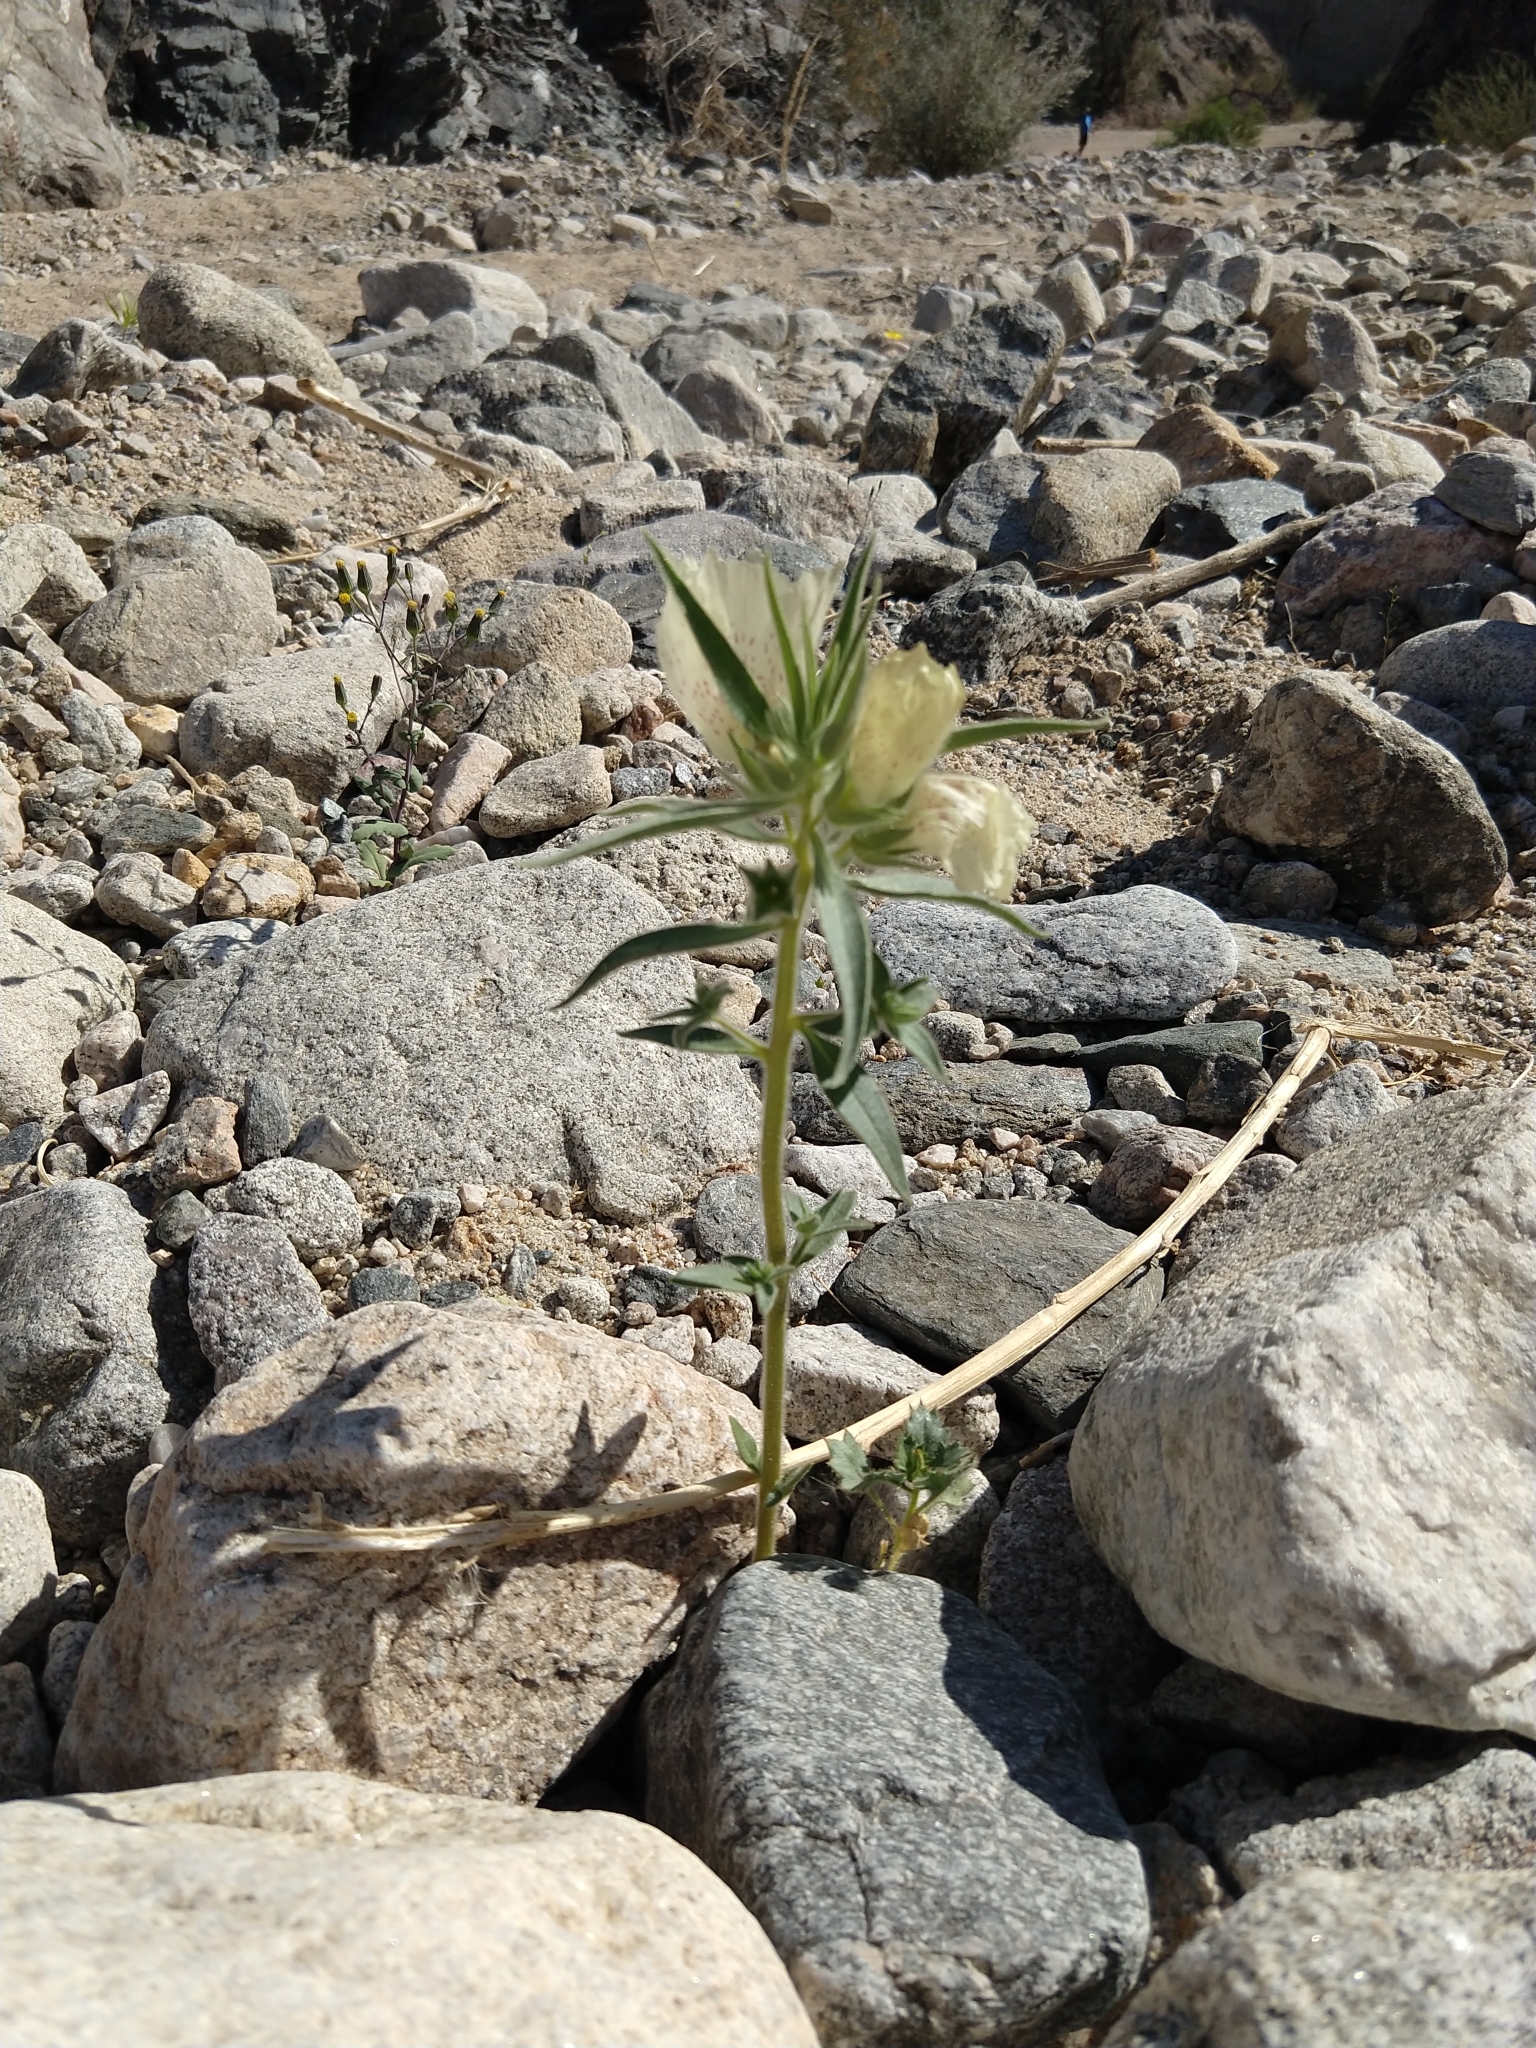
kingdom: Plantae
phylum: Tracheophyta
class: Magnoliopsida
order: Lamiales
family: Plantaginaceae
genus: Mohavea
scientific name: Mohavea confertiflora
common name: Ghost flower
